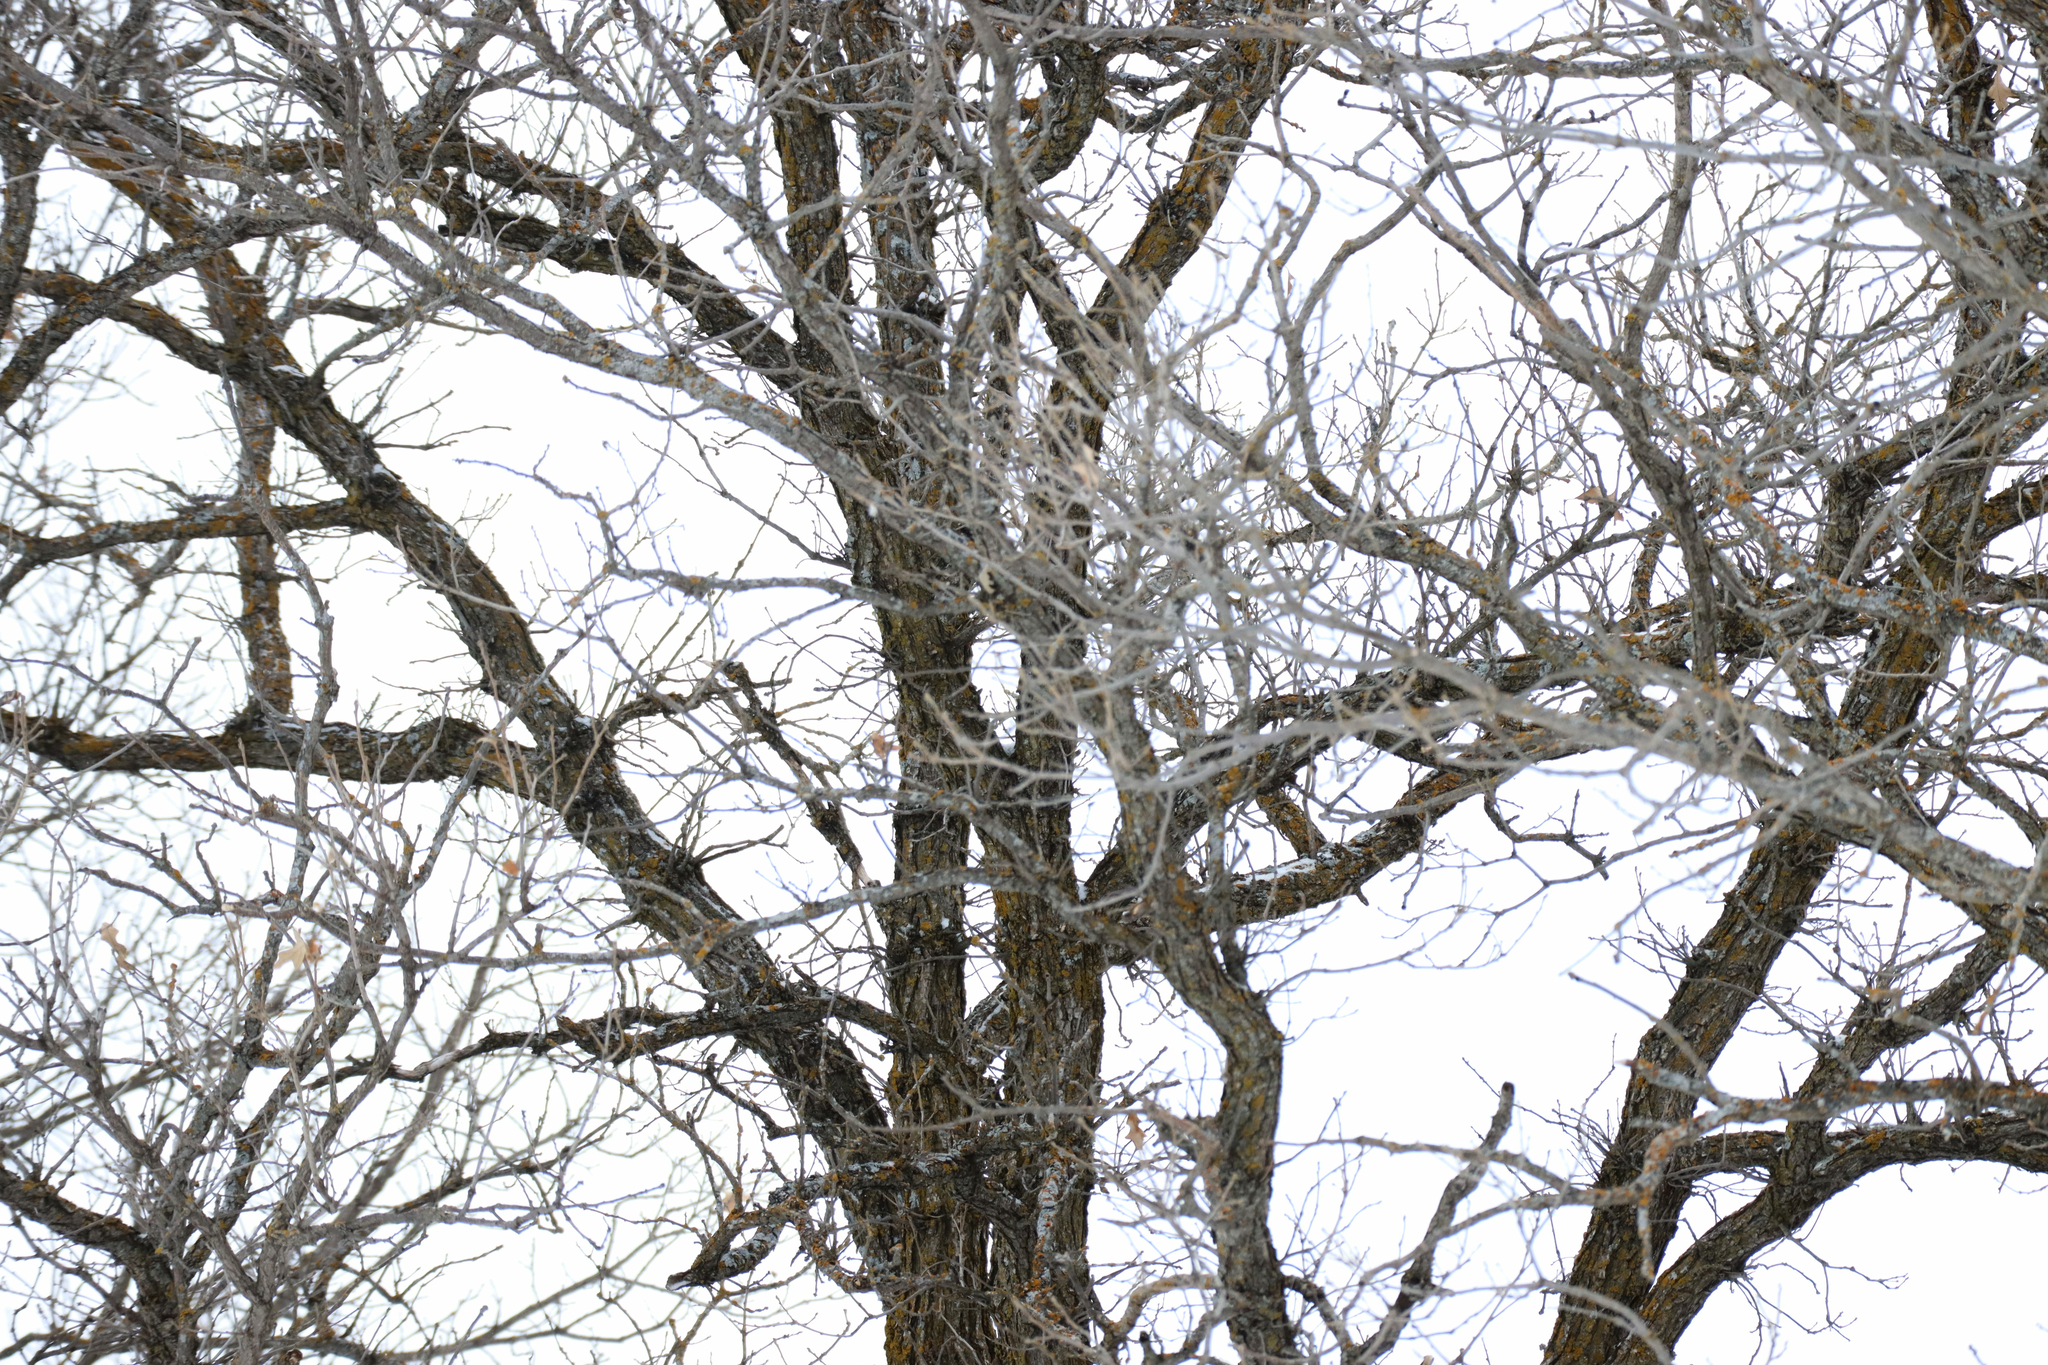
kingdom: Plantae
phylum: Tracheophyta
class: Magnoliopsida
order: Fagales
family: Fagaceae
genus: Quercus
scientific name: Quercus macrocarpa
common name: Bur oak
